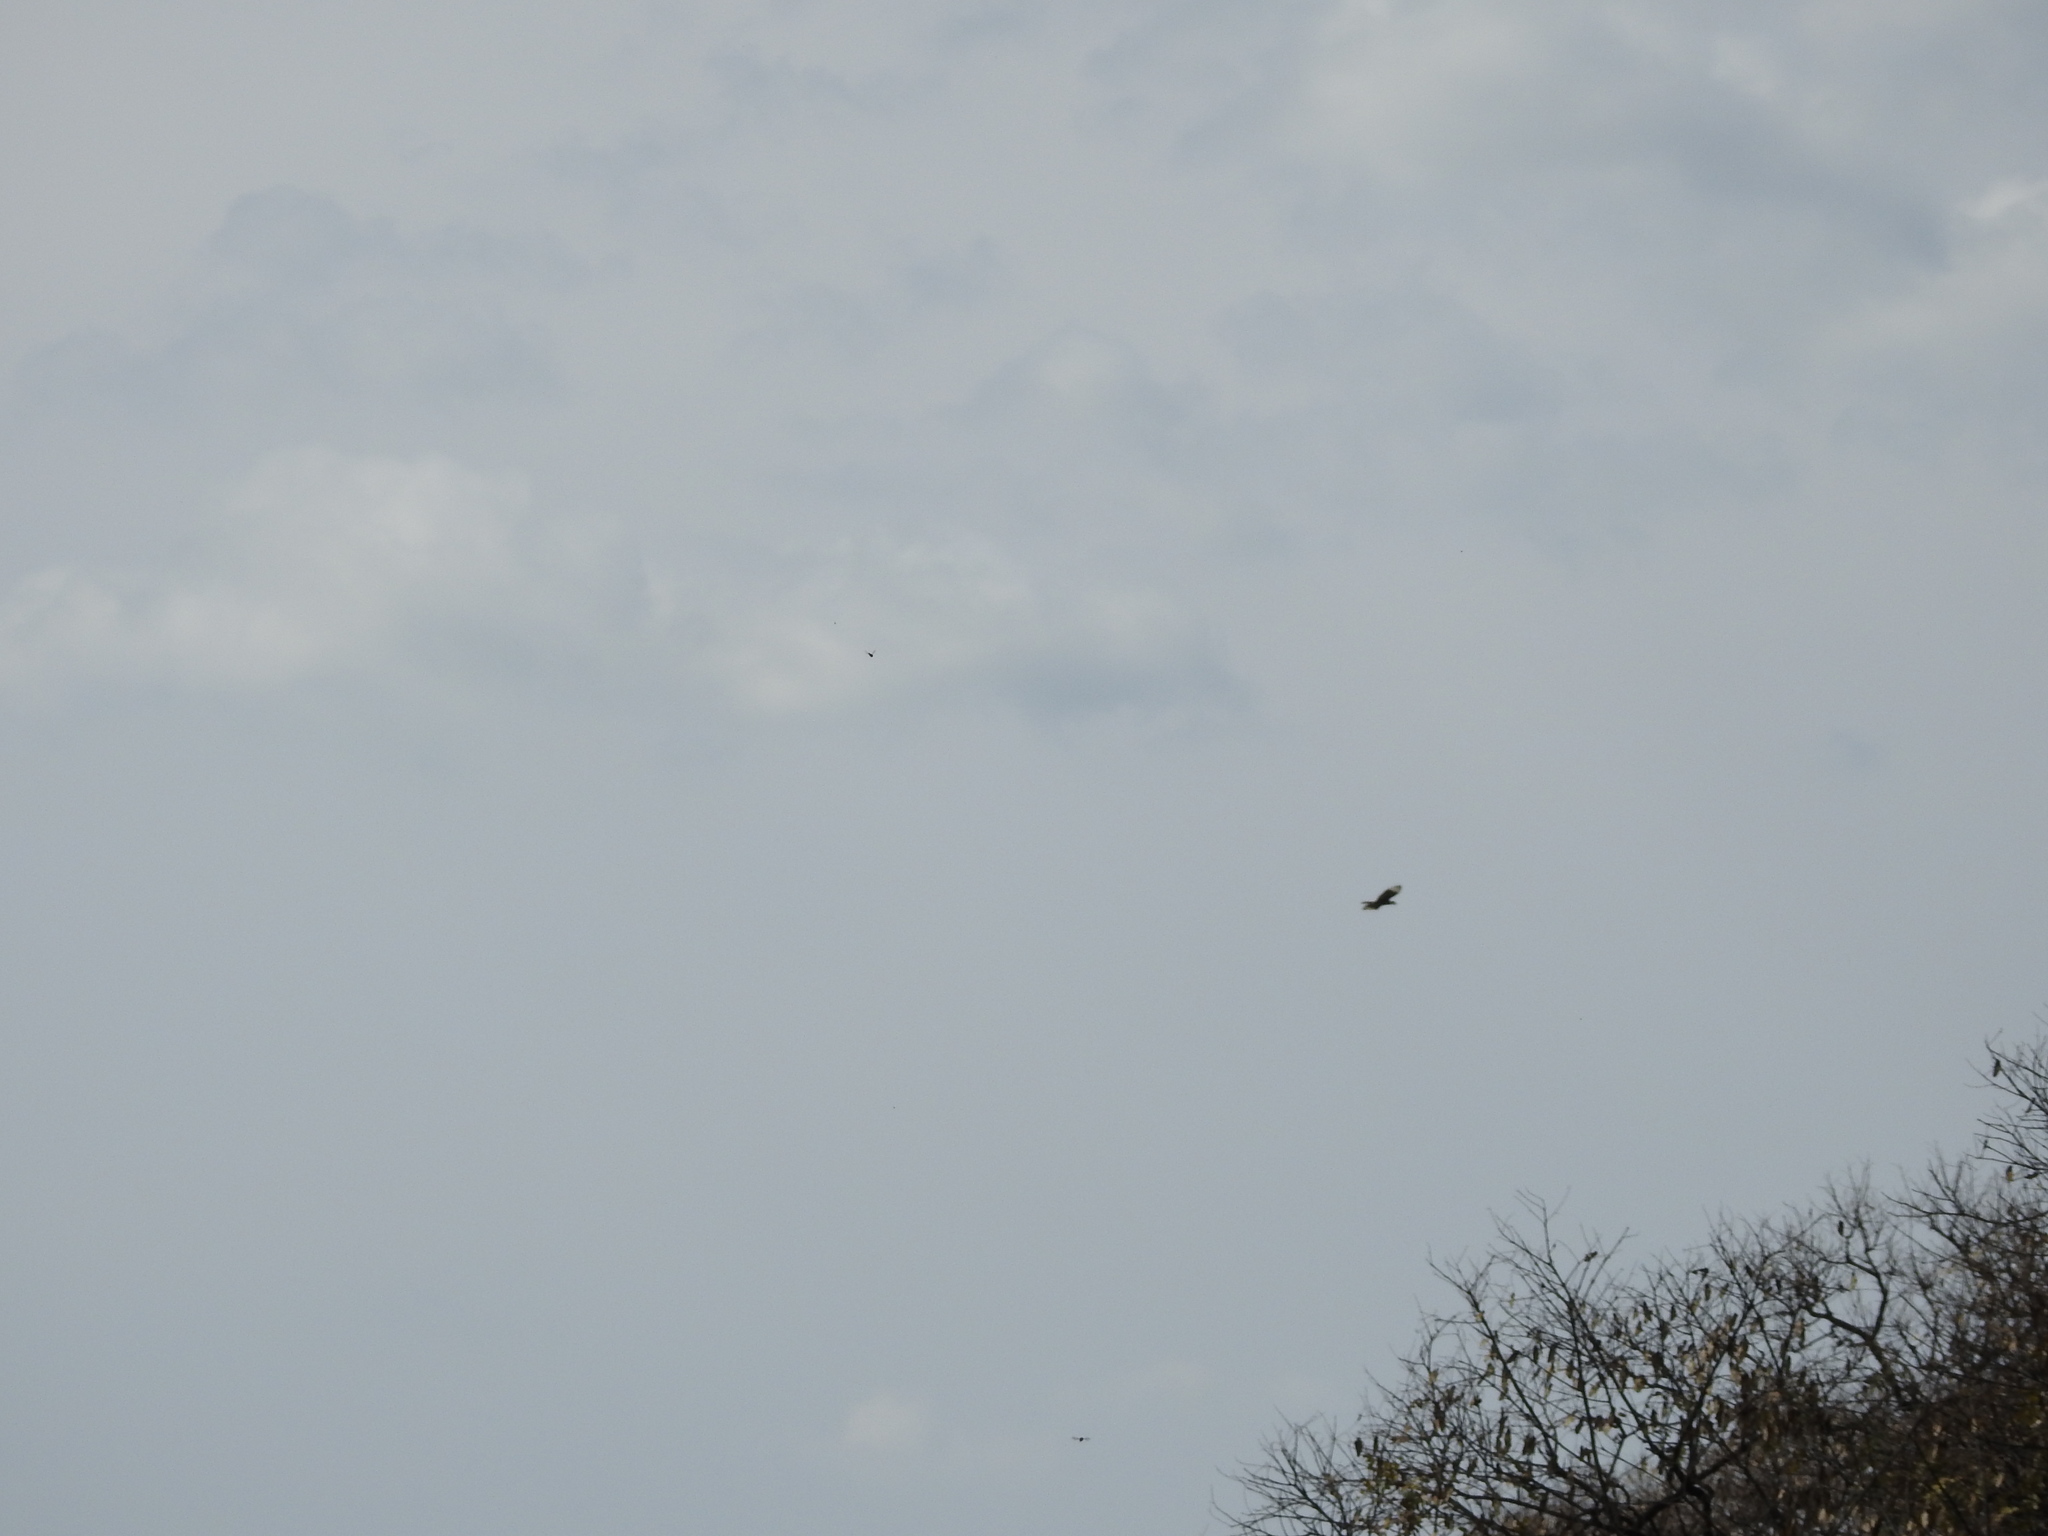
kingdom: Animalia
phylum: Chordata
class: Aves
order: Falconiformes
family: Falconidae
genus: Caracara
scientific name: Caracara plancus
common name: Southern caracara
